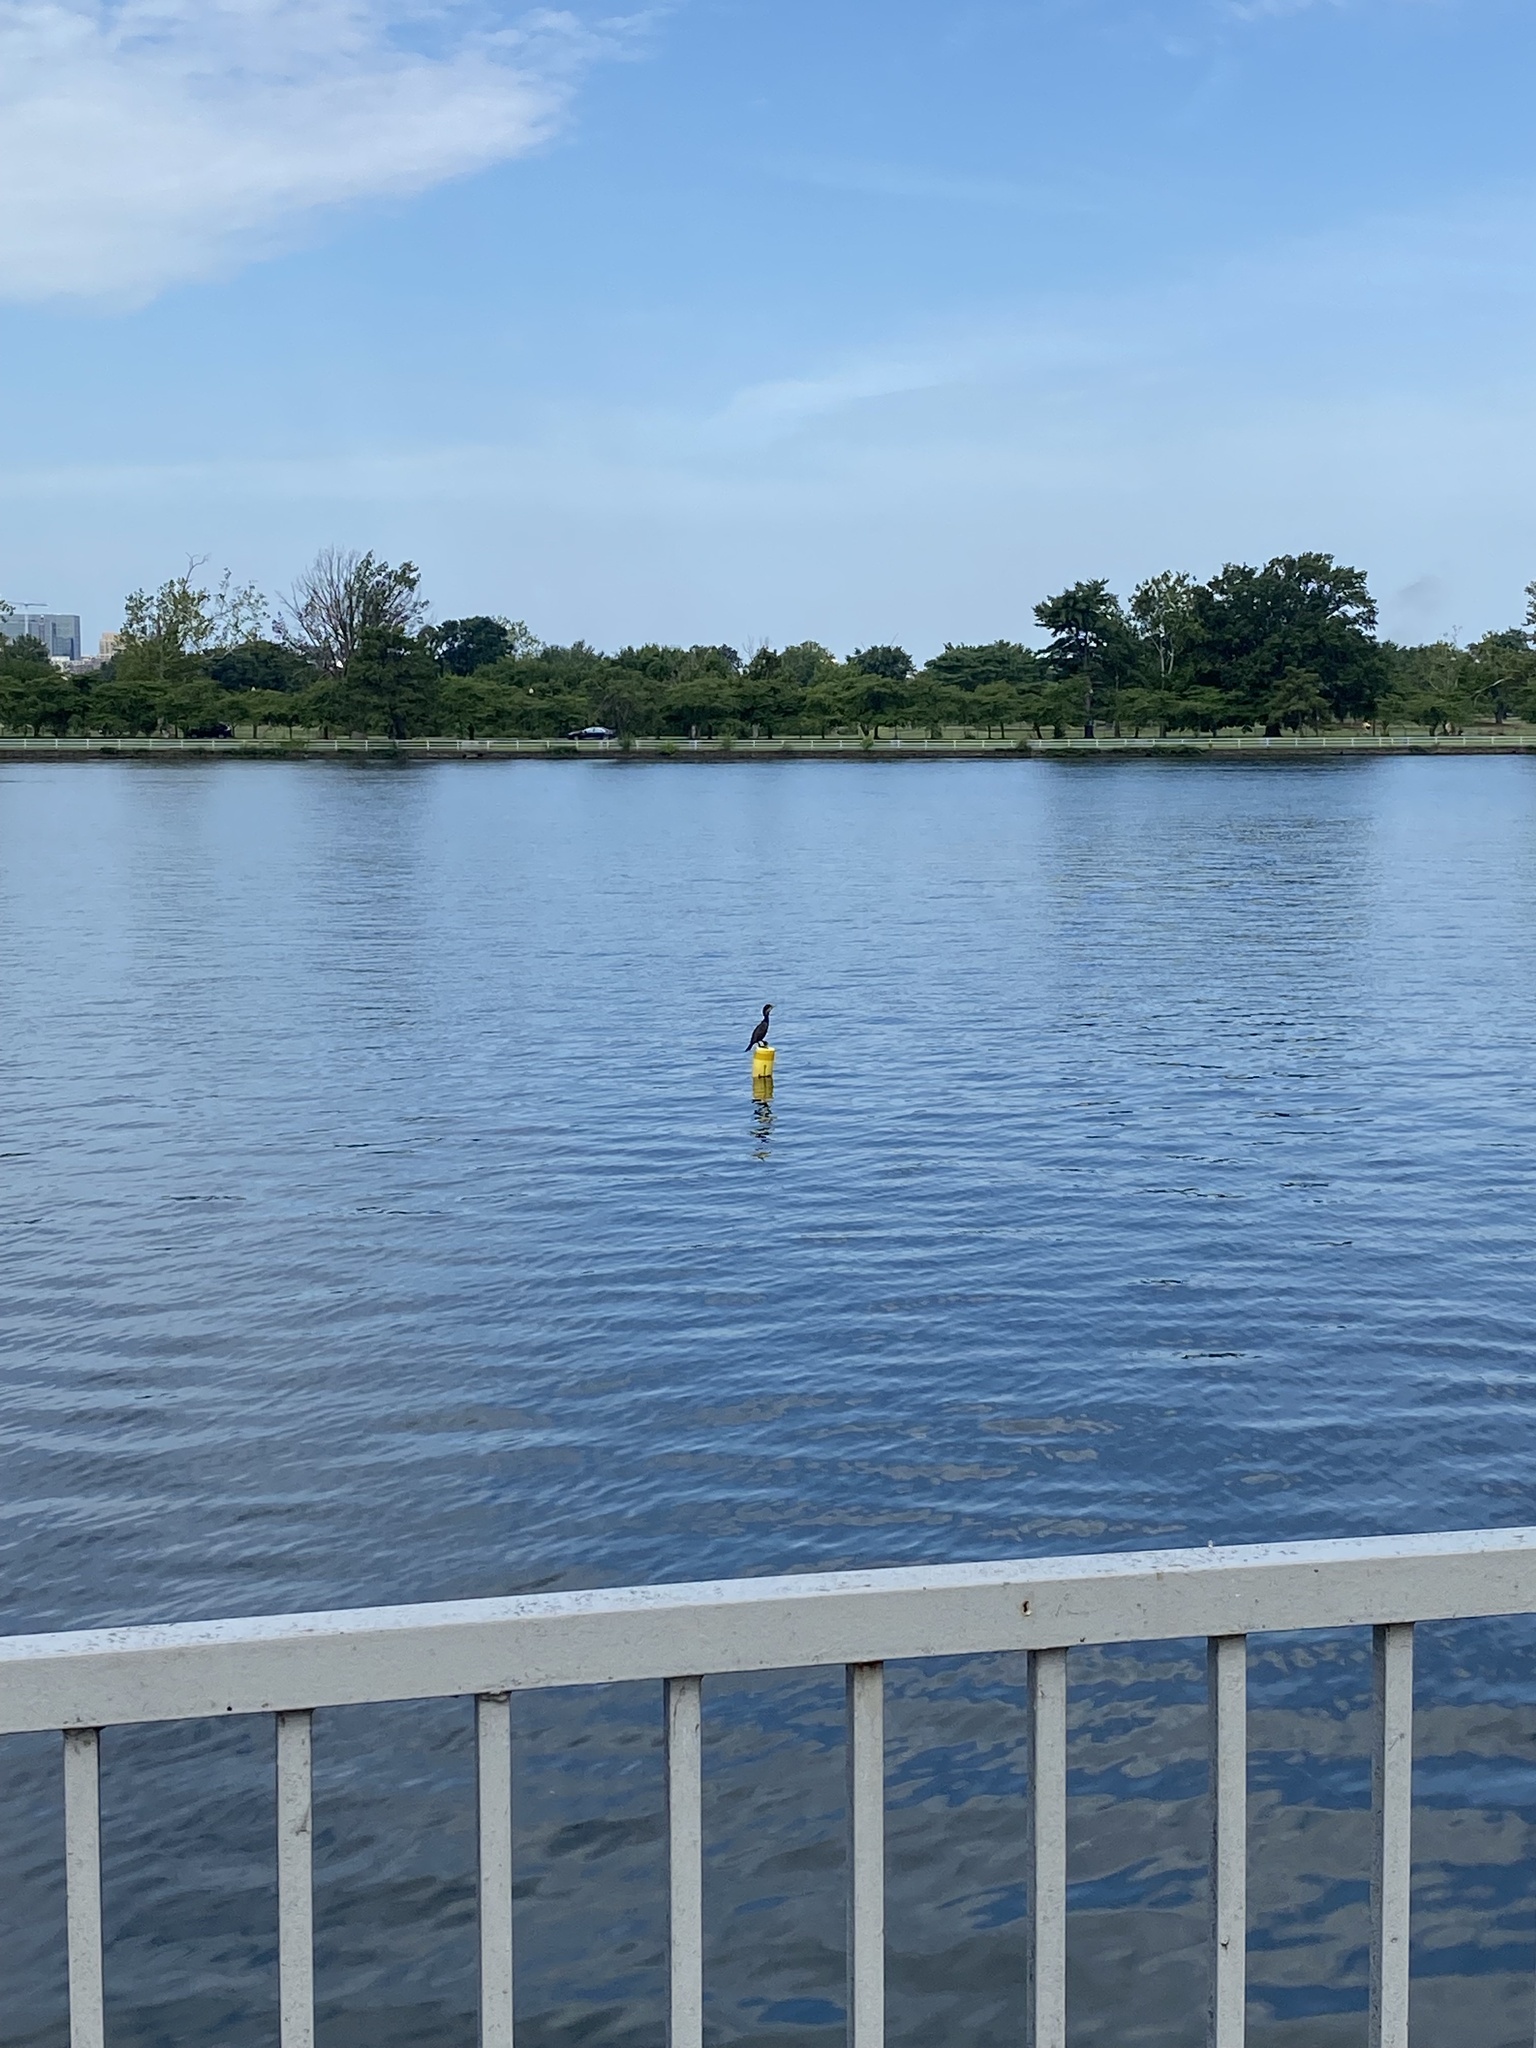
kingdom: Animalia
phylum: Chordata
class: Aves
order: Suliformes
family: Phalacrocoracidae
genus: Phalacrocorax
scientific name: Phalacrocorax auritus
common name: Double-crested cormorant
